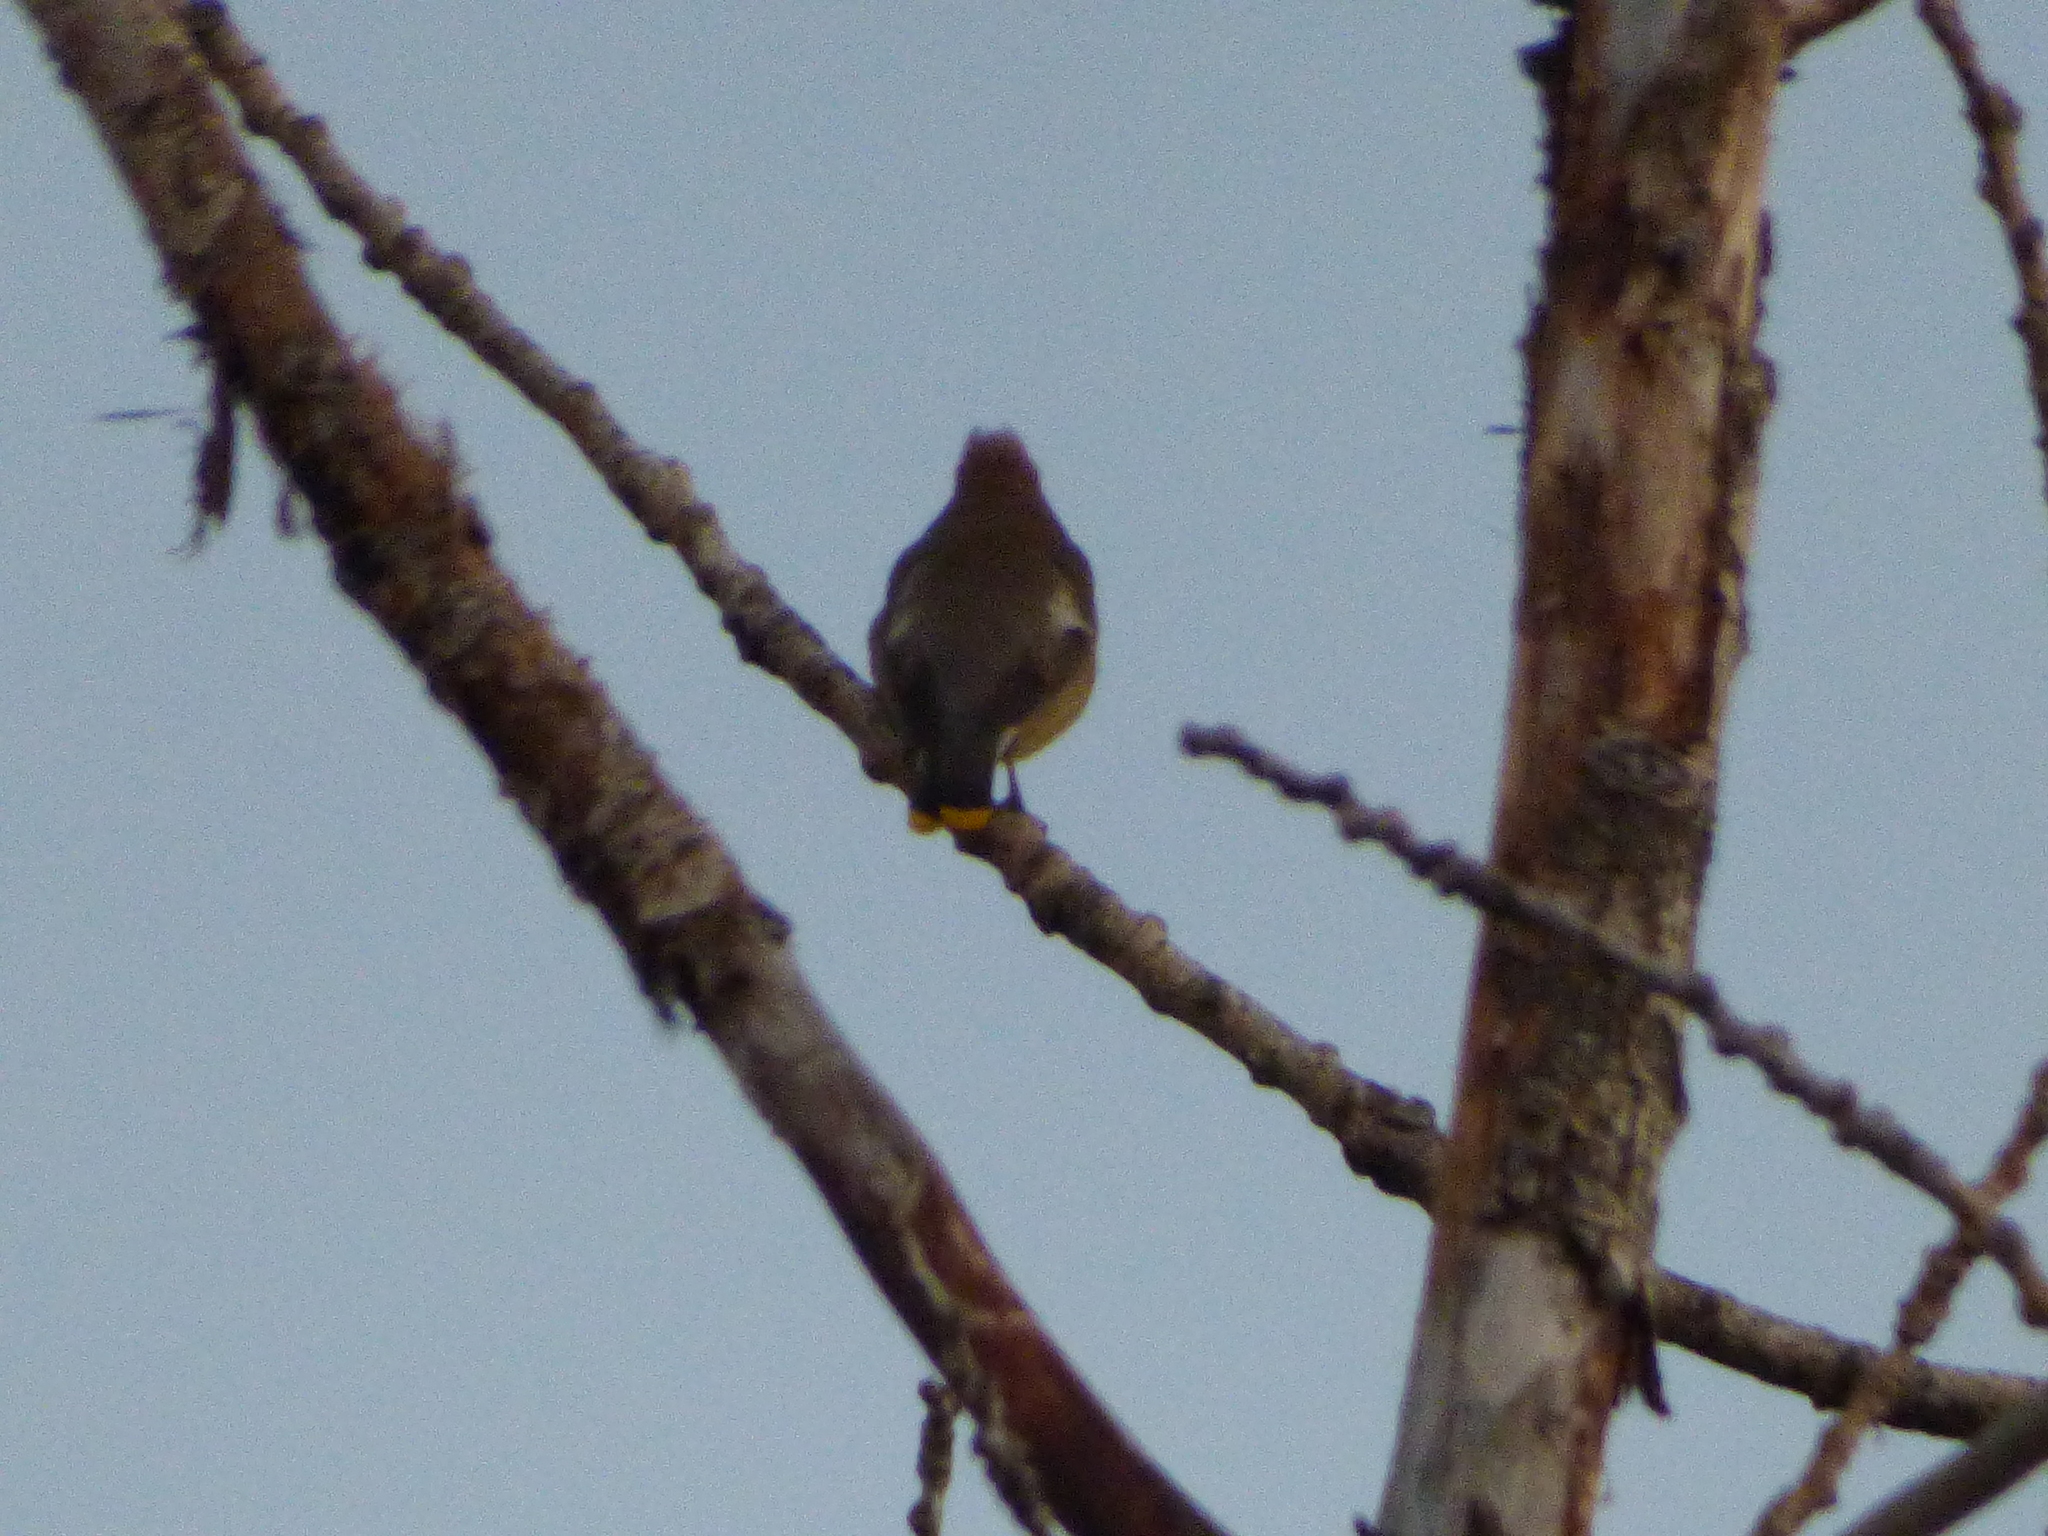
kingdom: Animalia
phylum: Chordata
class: Aves
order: Passeriformes
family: Bombycillidae
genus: Bombycilla
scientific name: Bombycilla cedrorum
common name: Cedar waxwing
